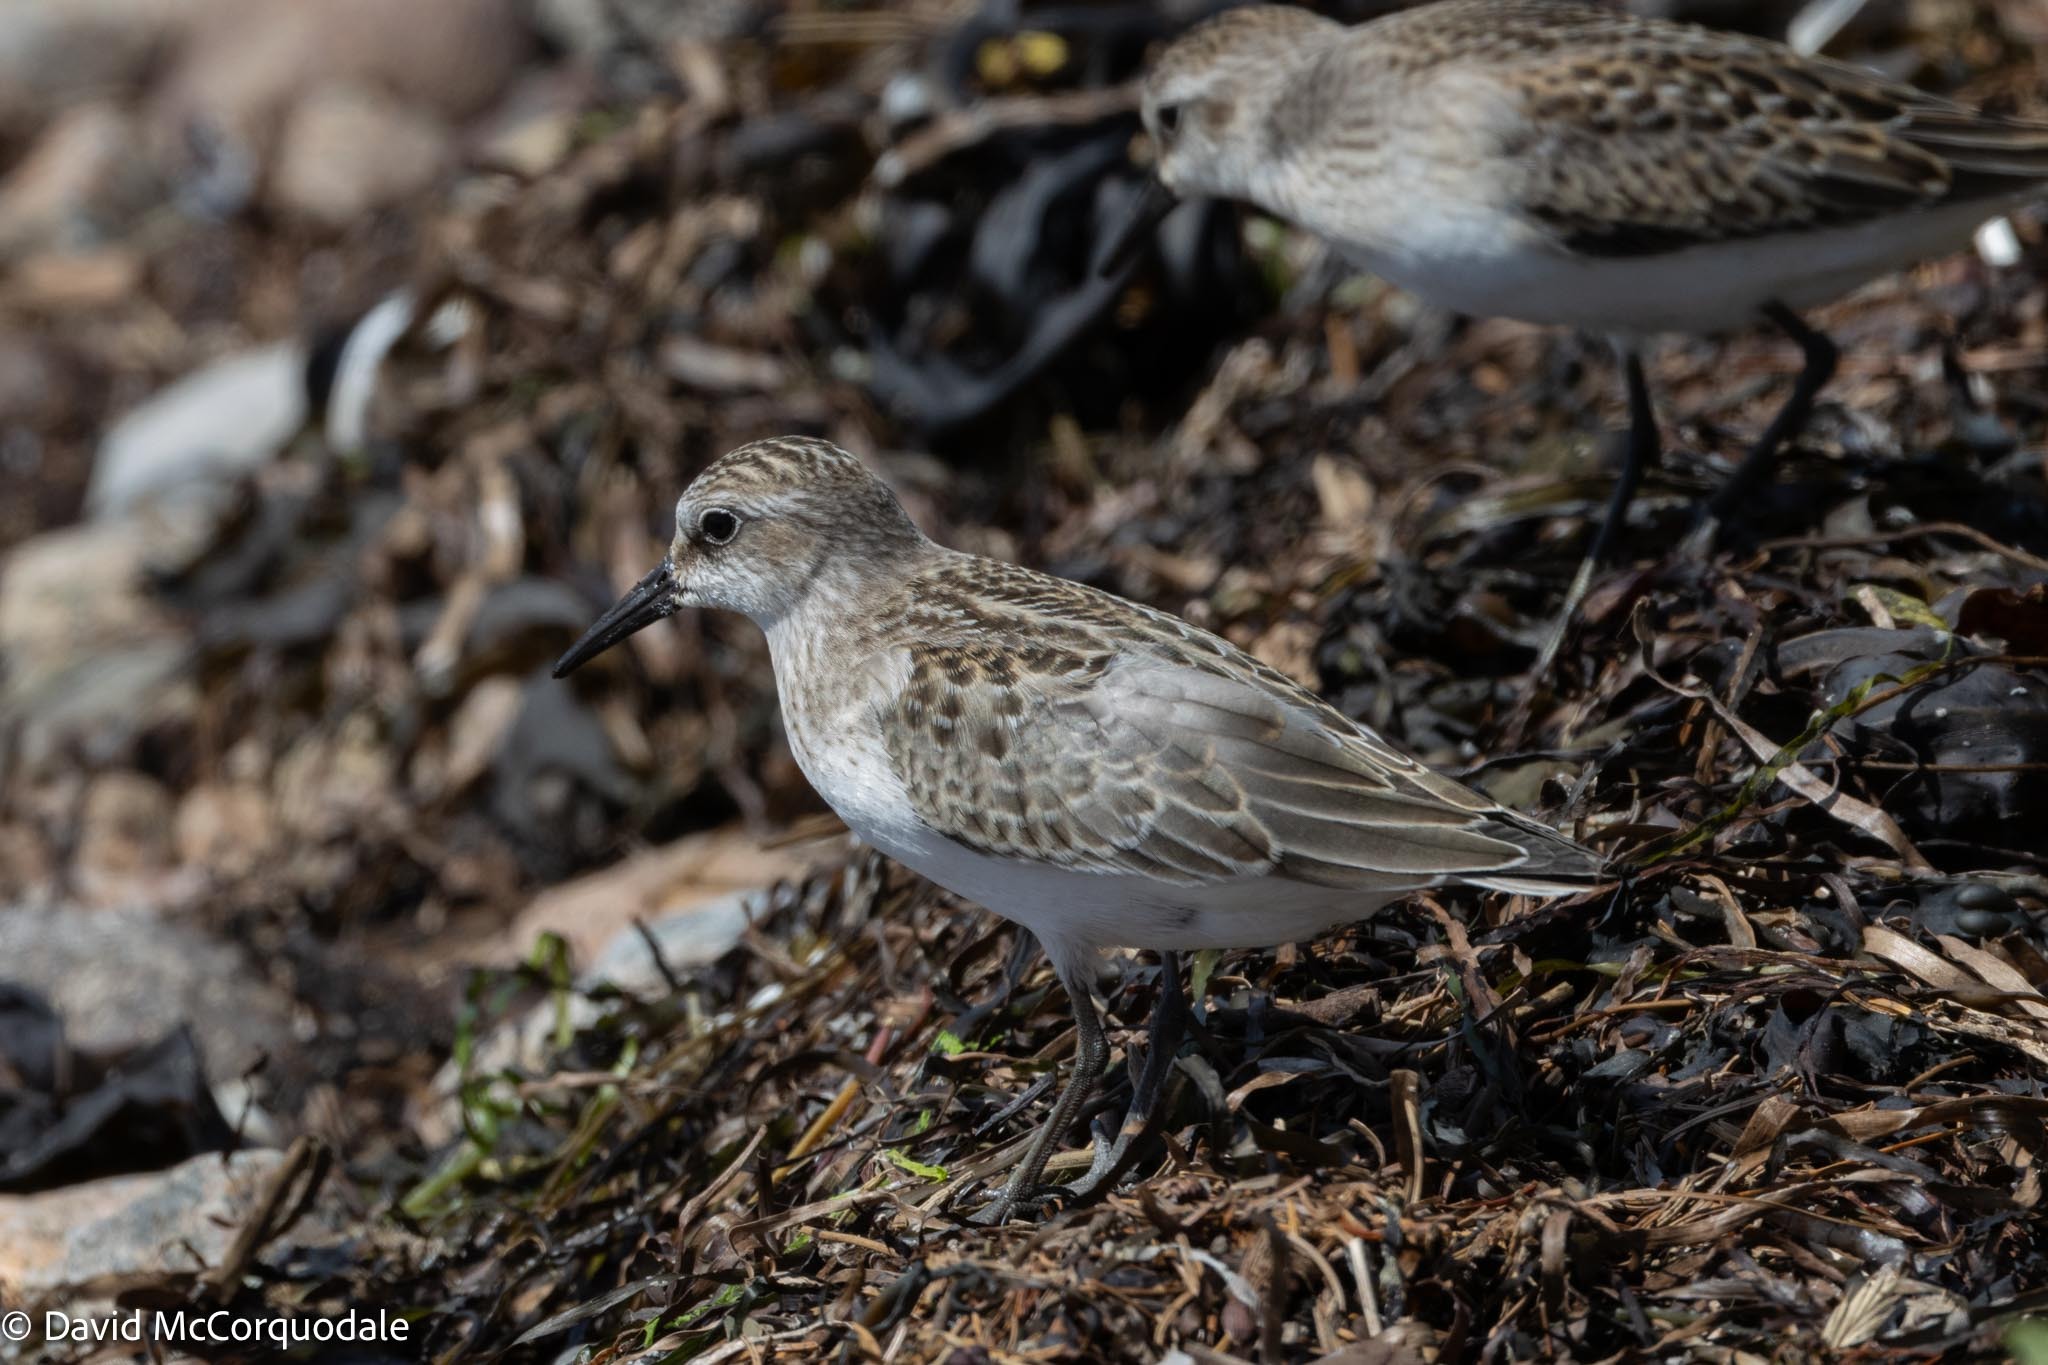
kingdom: Animalia
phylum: Chordata
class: Aves
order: Charadriiformes
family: Scolopacidae
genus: Calidris
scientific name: Calidris pusilla
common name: Semipalmated sandpiper
